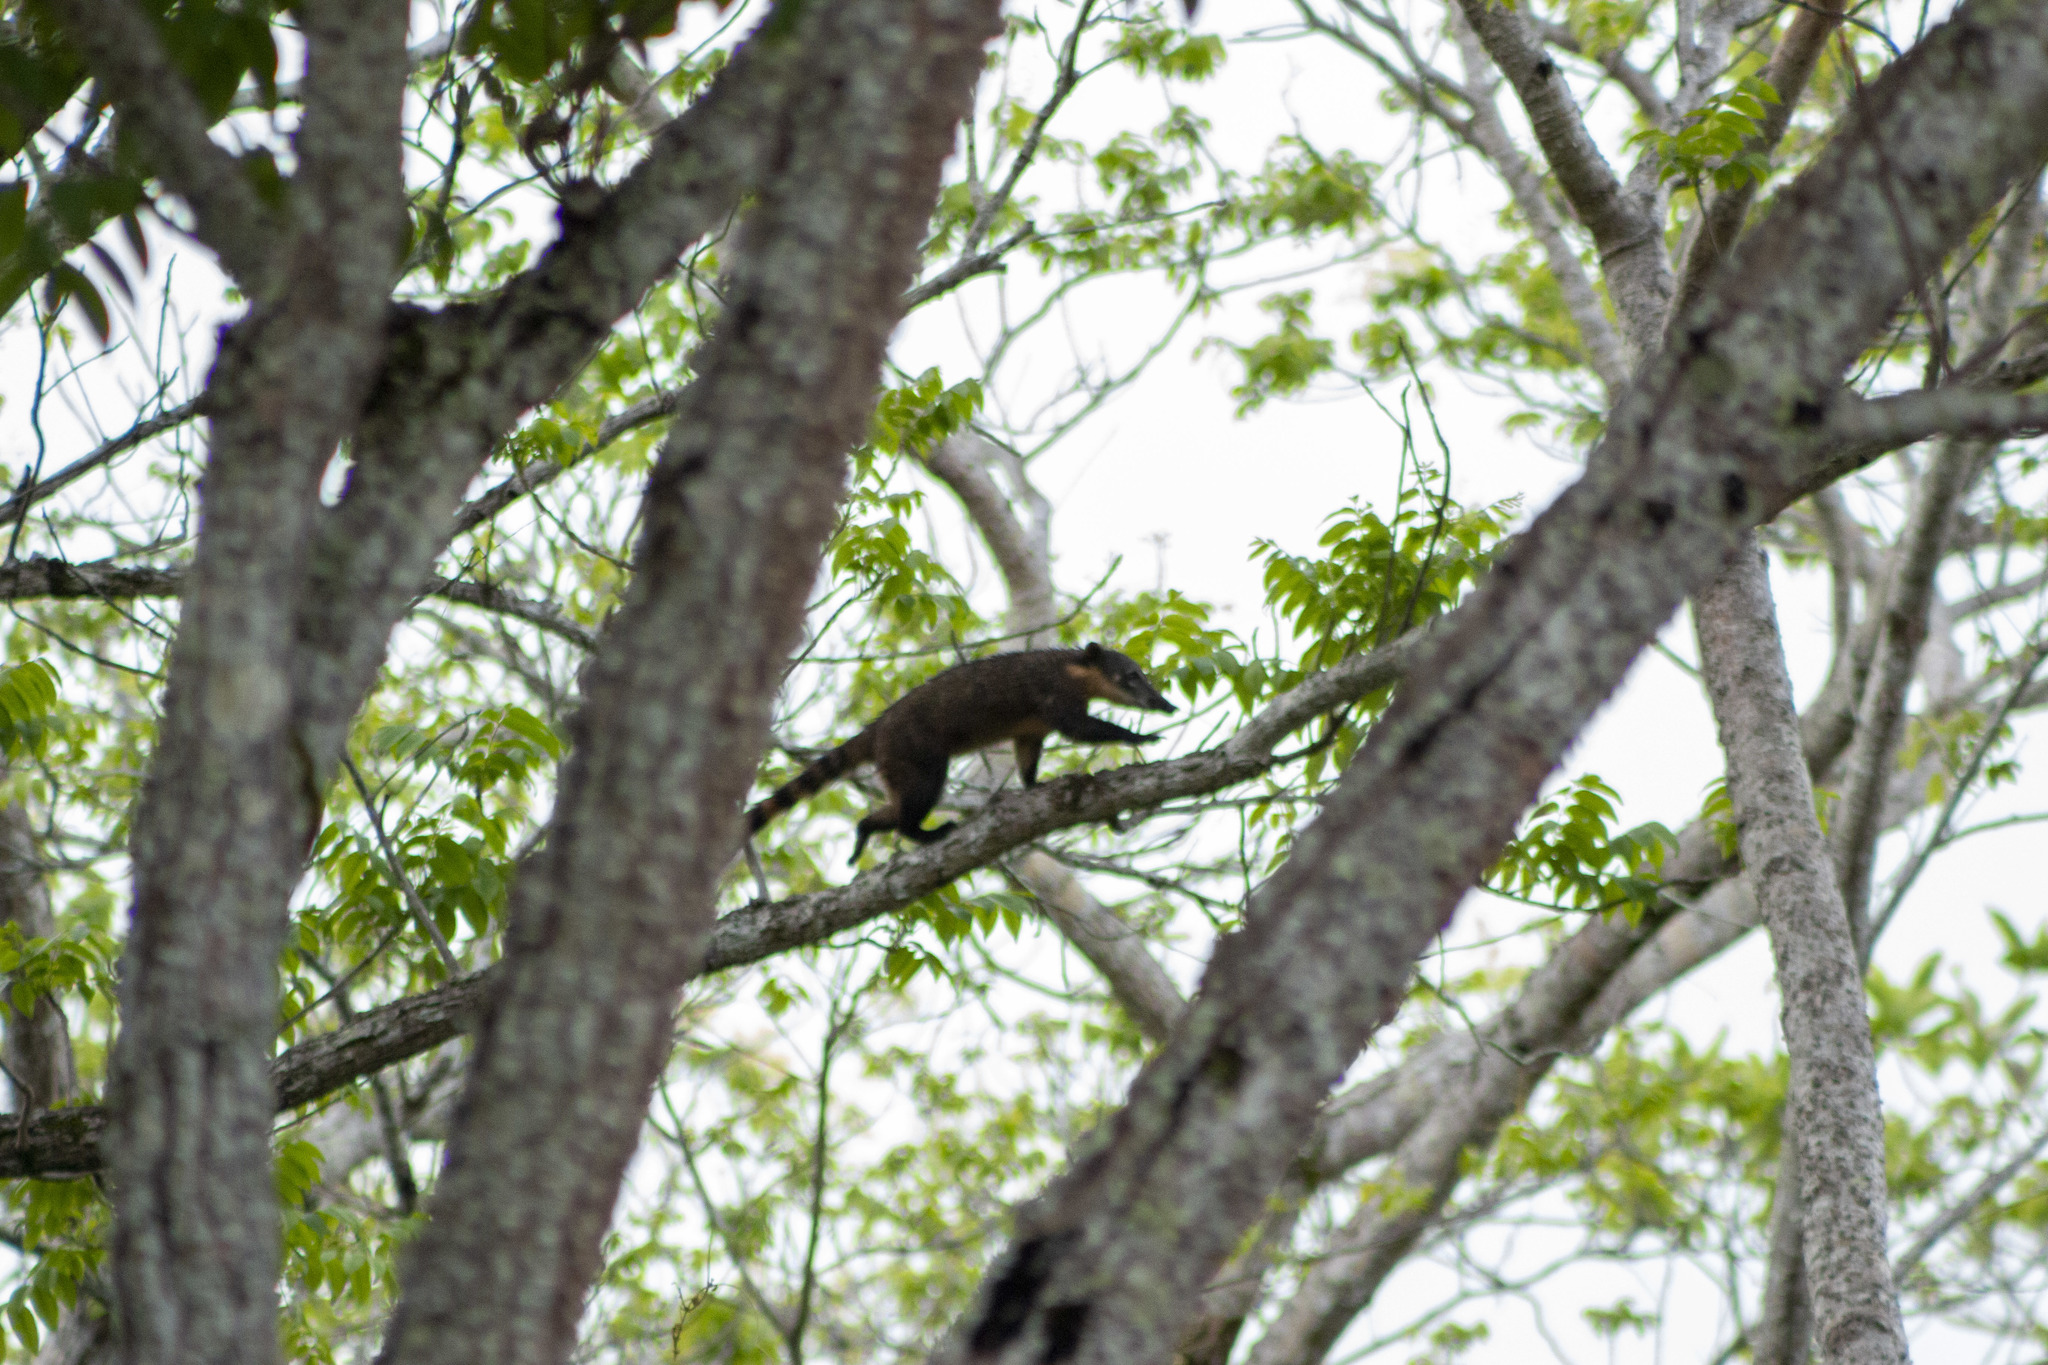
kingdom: Animalia
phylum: Chordata
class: Mammalia
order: Carnivora
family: Procyonidae
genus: Nasua
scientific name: Nasua nasua
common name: South american coati
